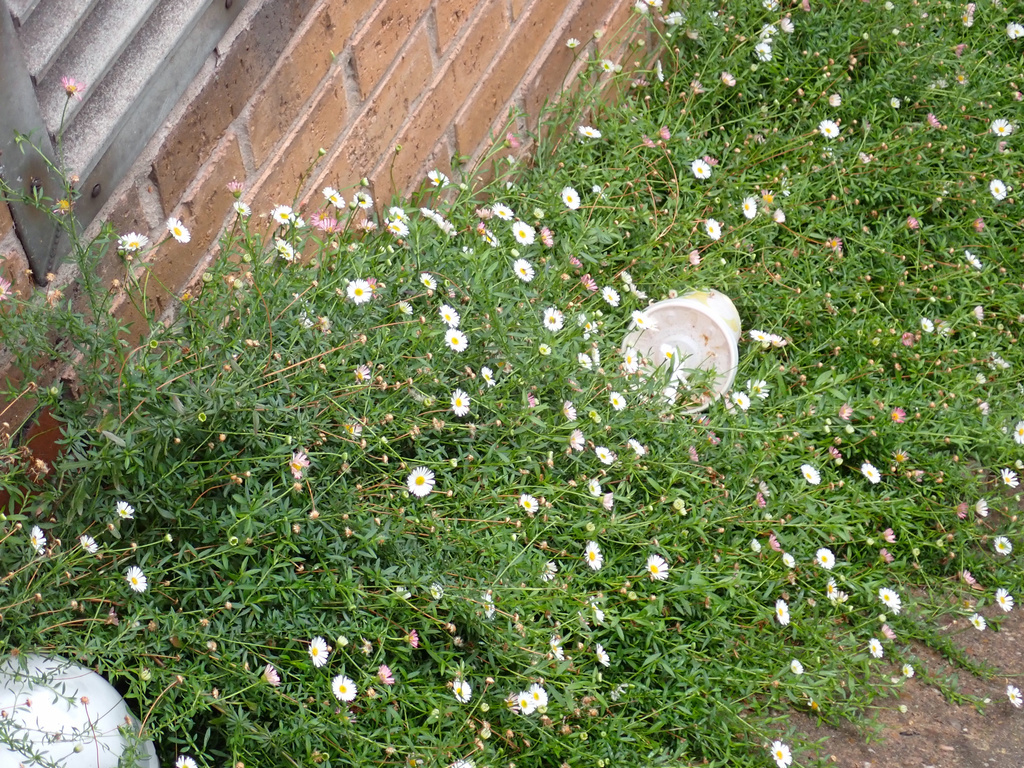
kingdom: Plantae
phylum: Tracheophyta
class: Magnoliopsida
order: Asterales
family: Asteraceae
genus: Erigeron
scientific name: Erigeron karvinskianus
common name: Mexican fleabane
